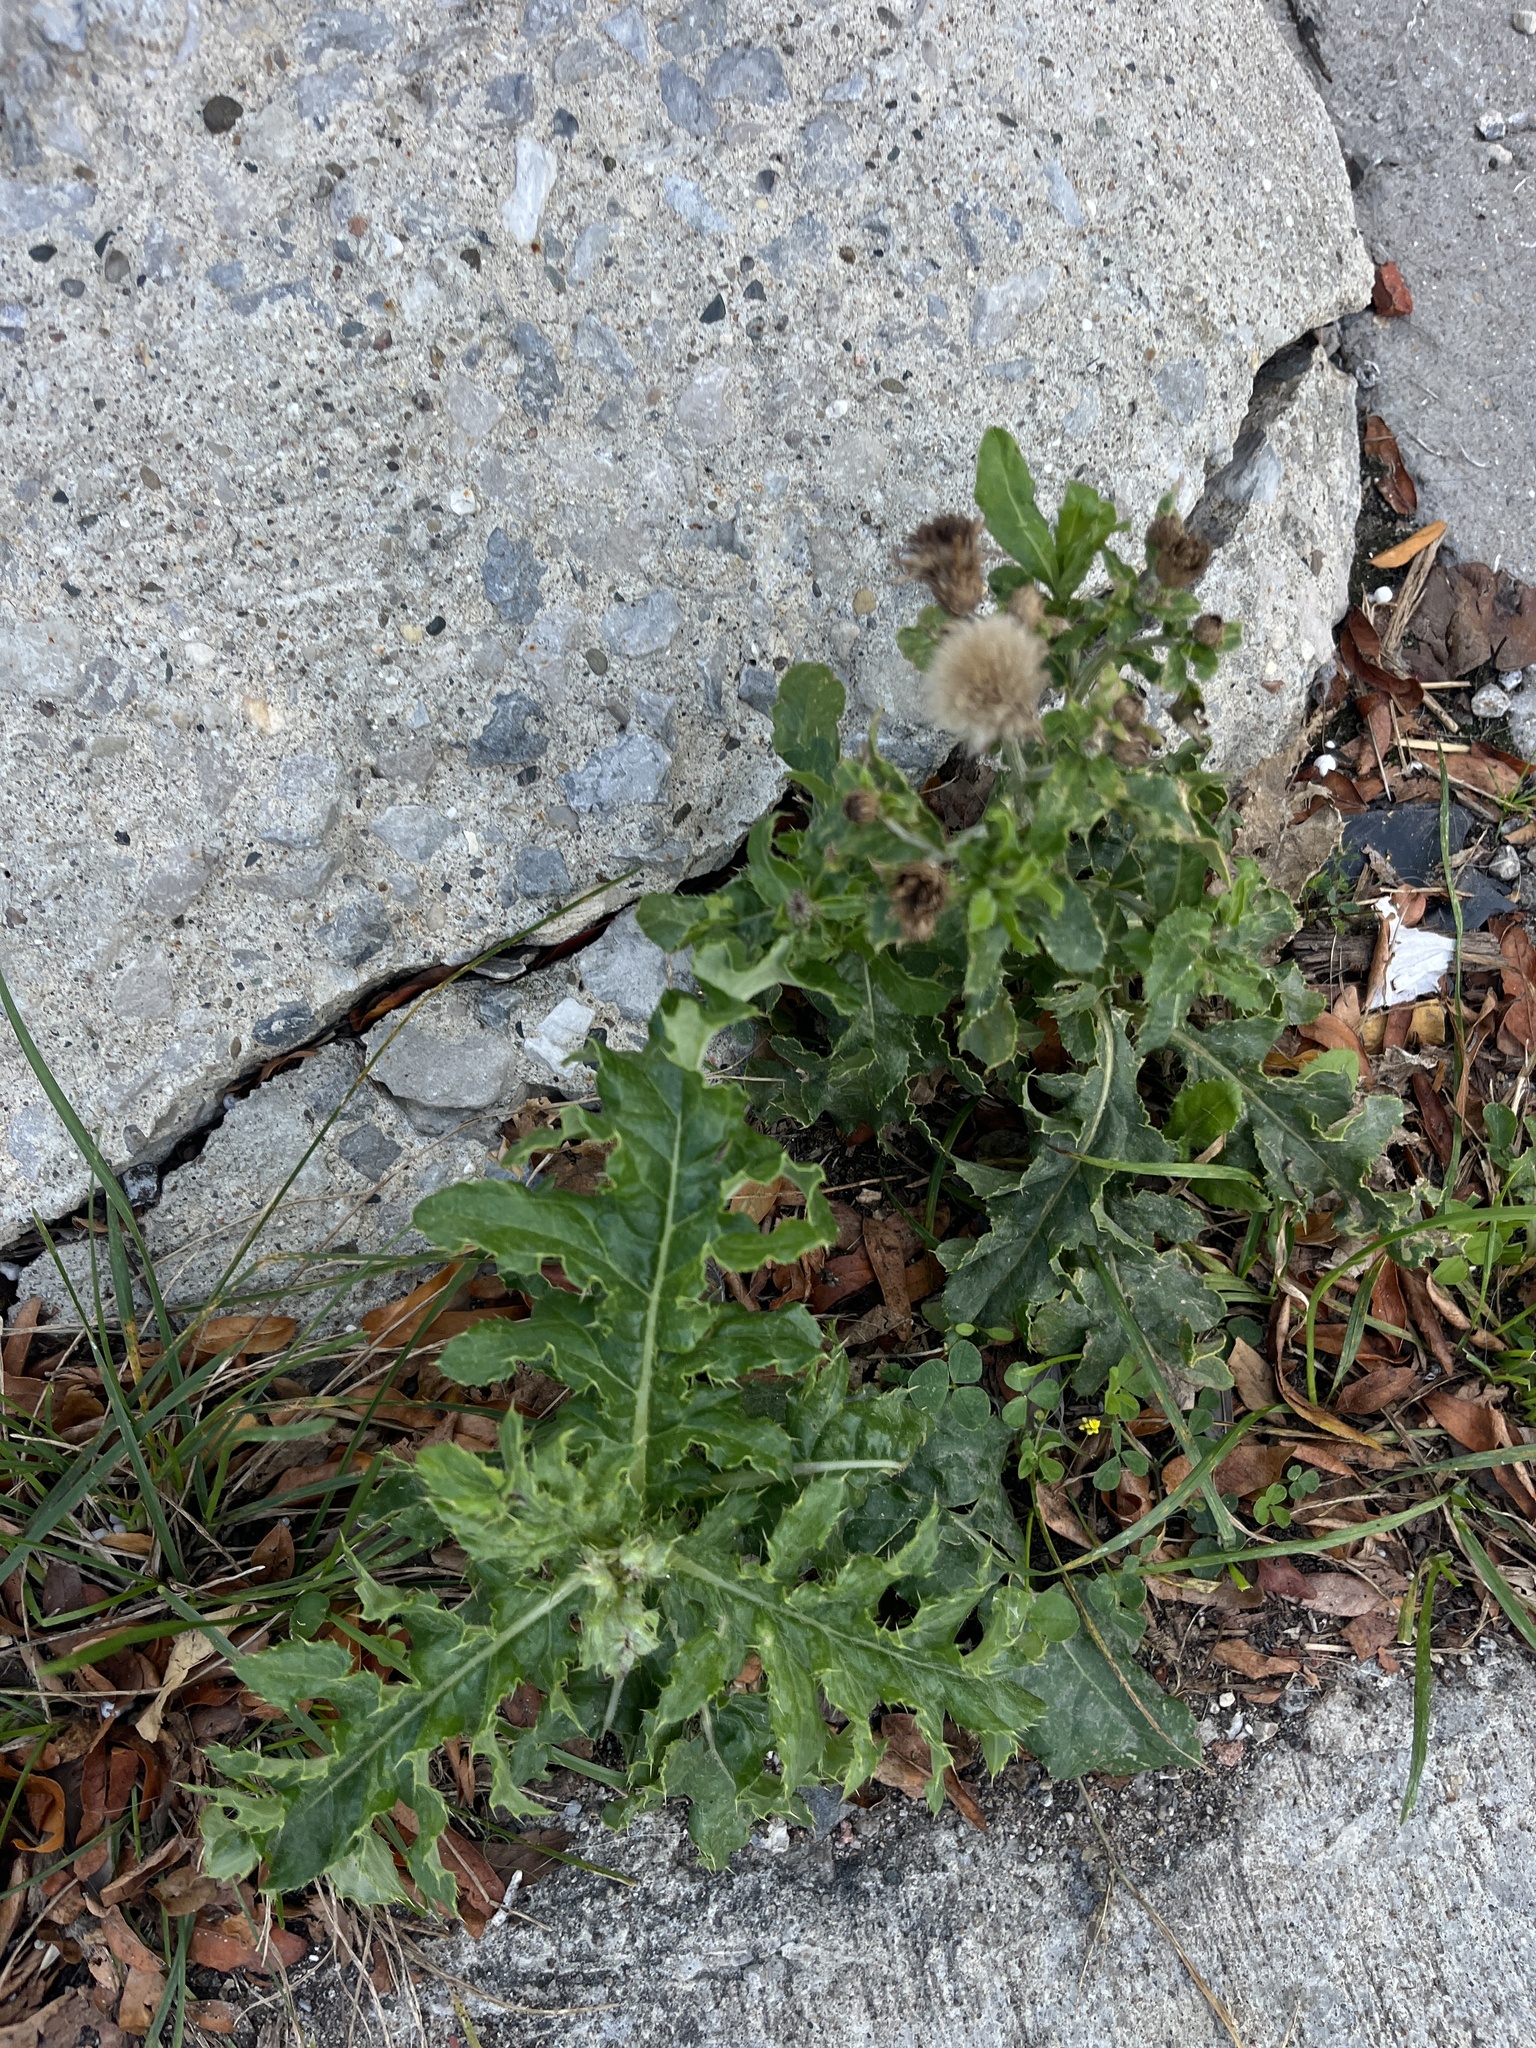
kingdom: Plantae
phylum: Tracheophyta
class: Magnoliopsida
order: Asterales
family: Asteraceae
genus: Cirsium
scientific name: Cirsium arvense
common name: Creeping thistle
